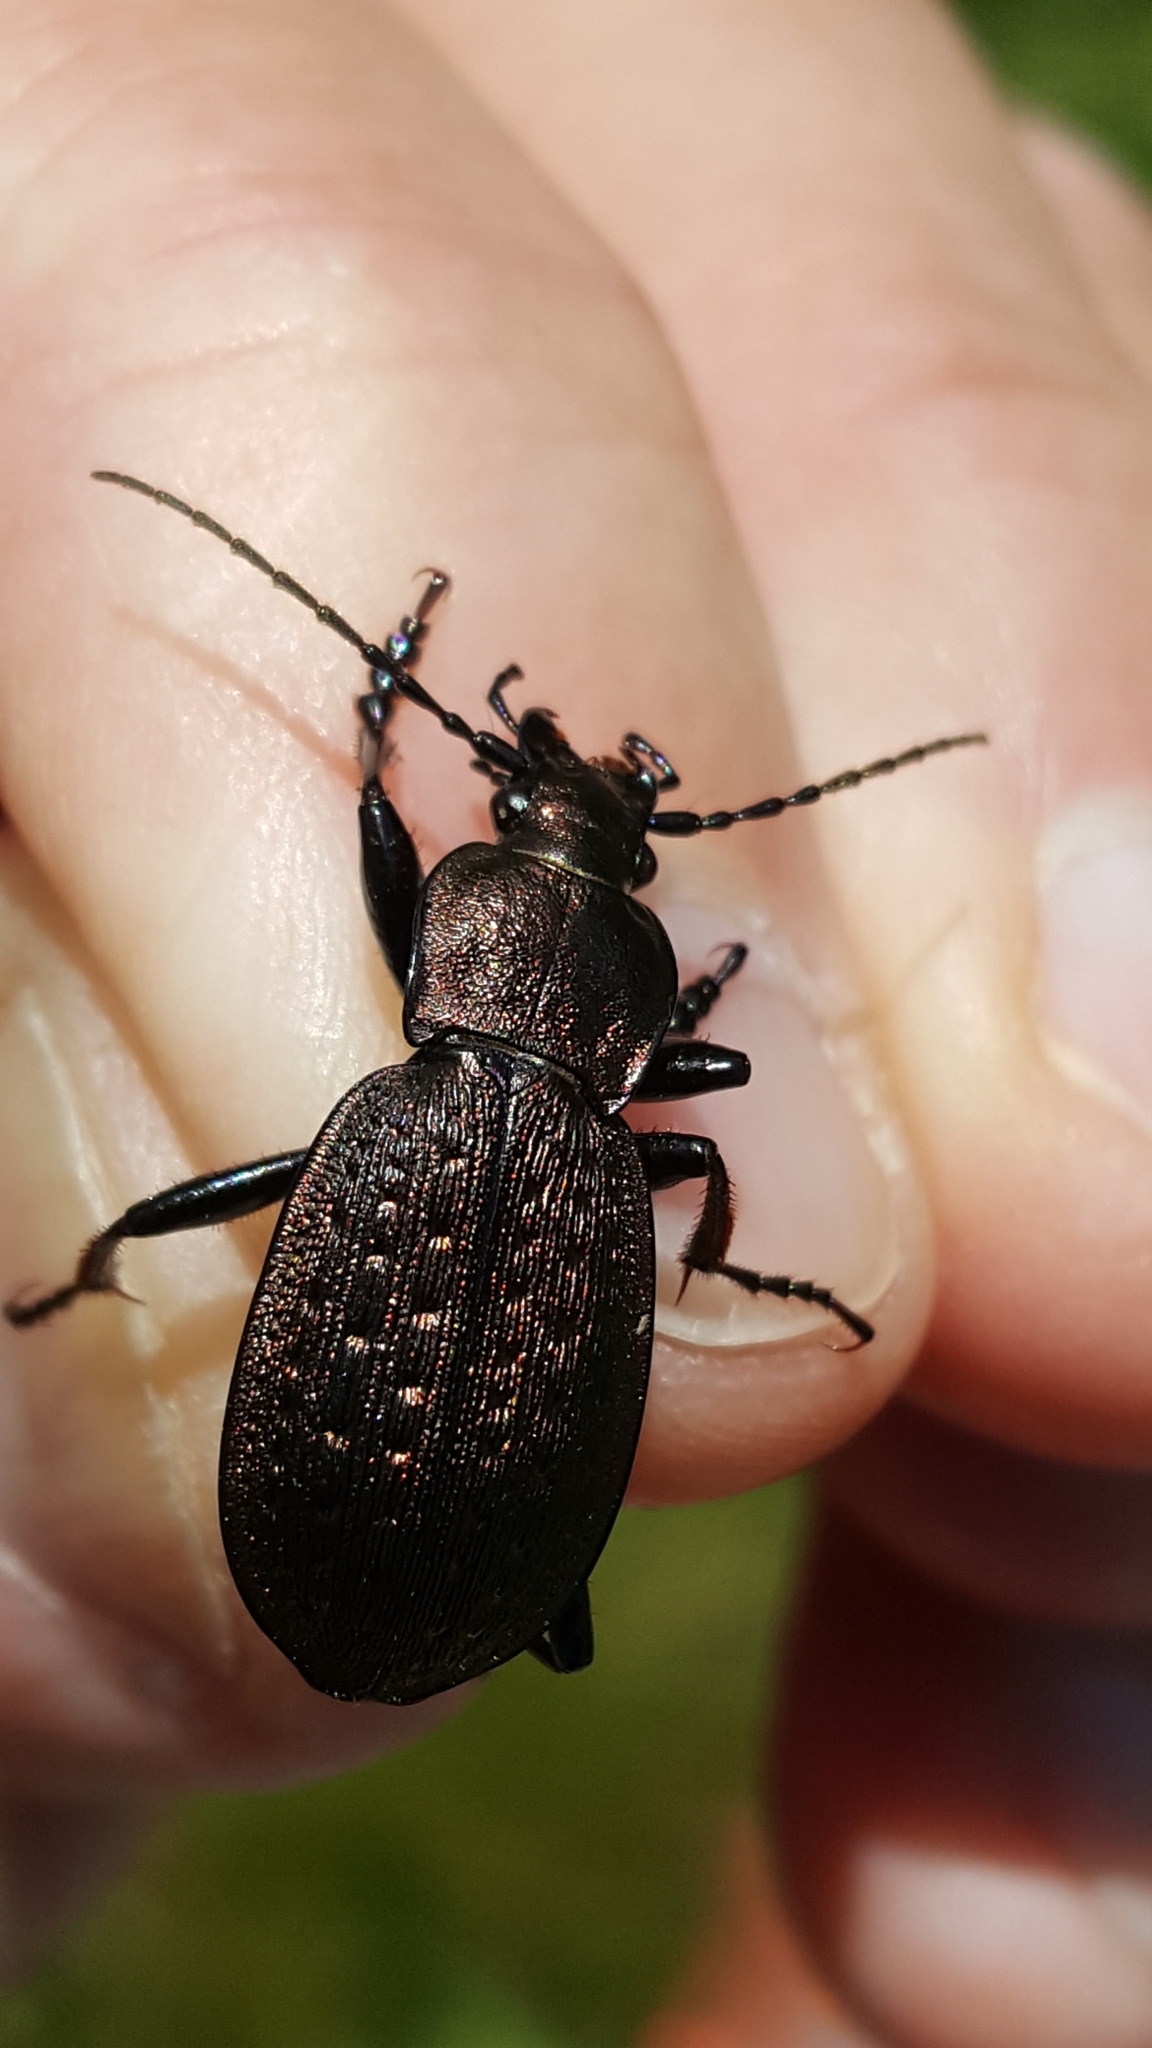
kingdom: Animalia
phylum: Arthropoda
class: Insecta
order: Coleoptera
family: Carabidae
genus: Carabus
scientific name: Carabus concolor
